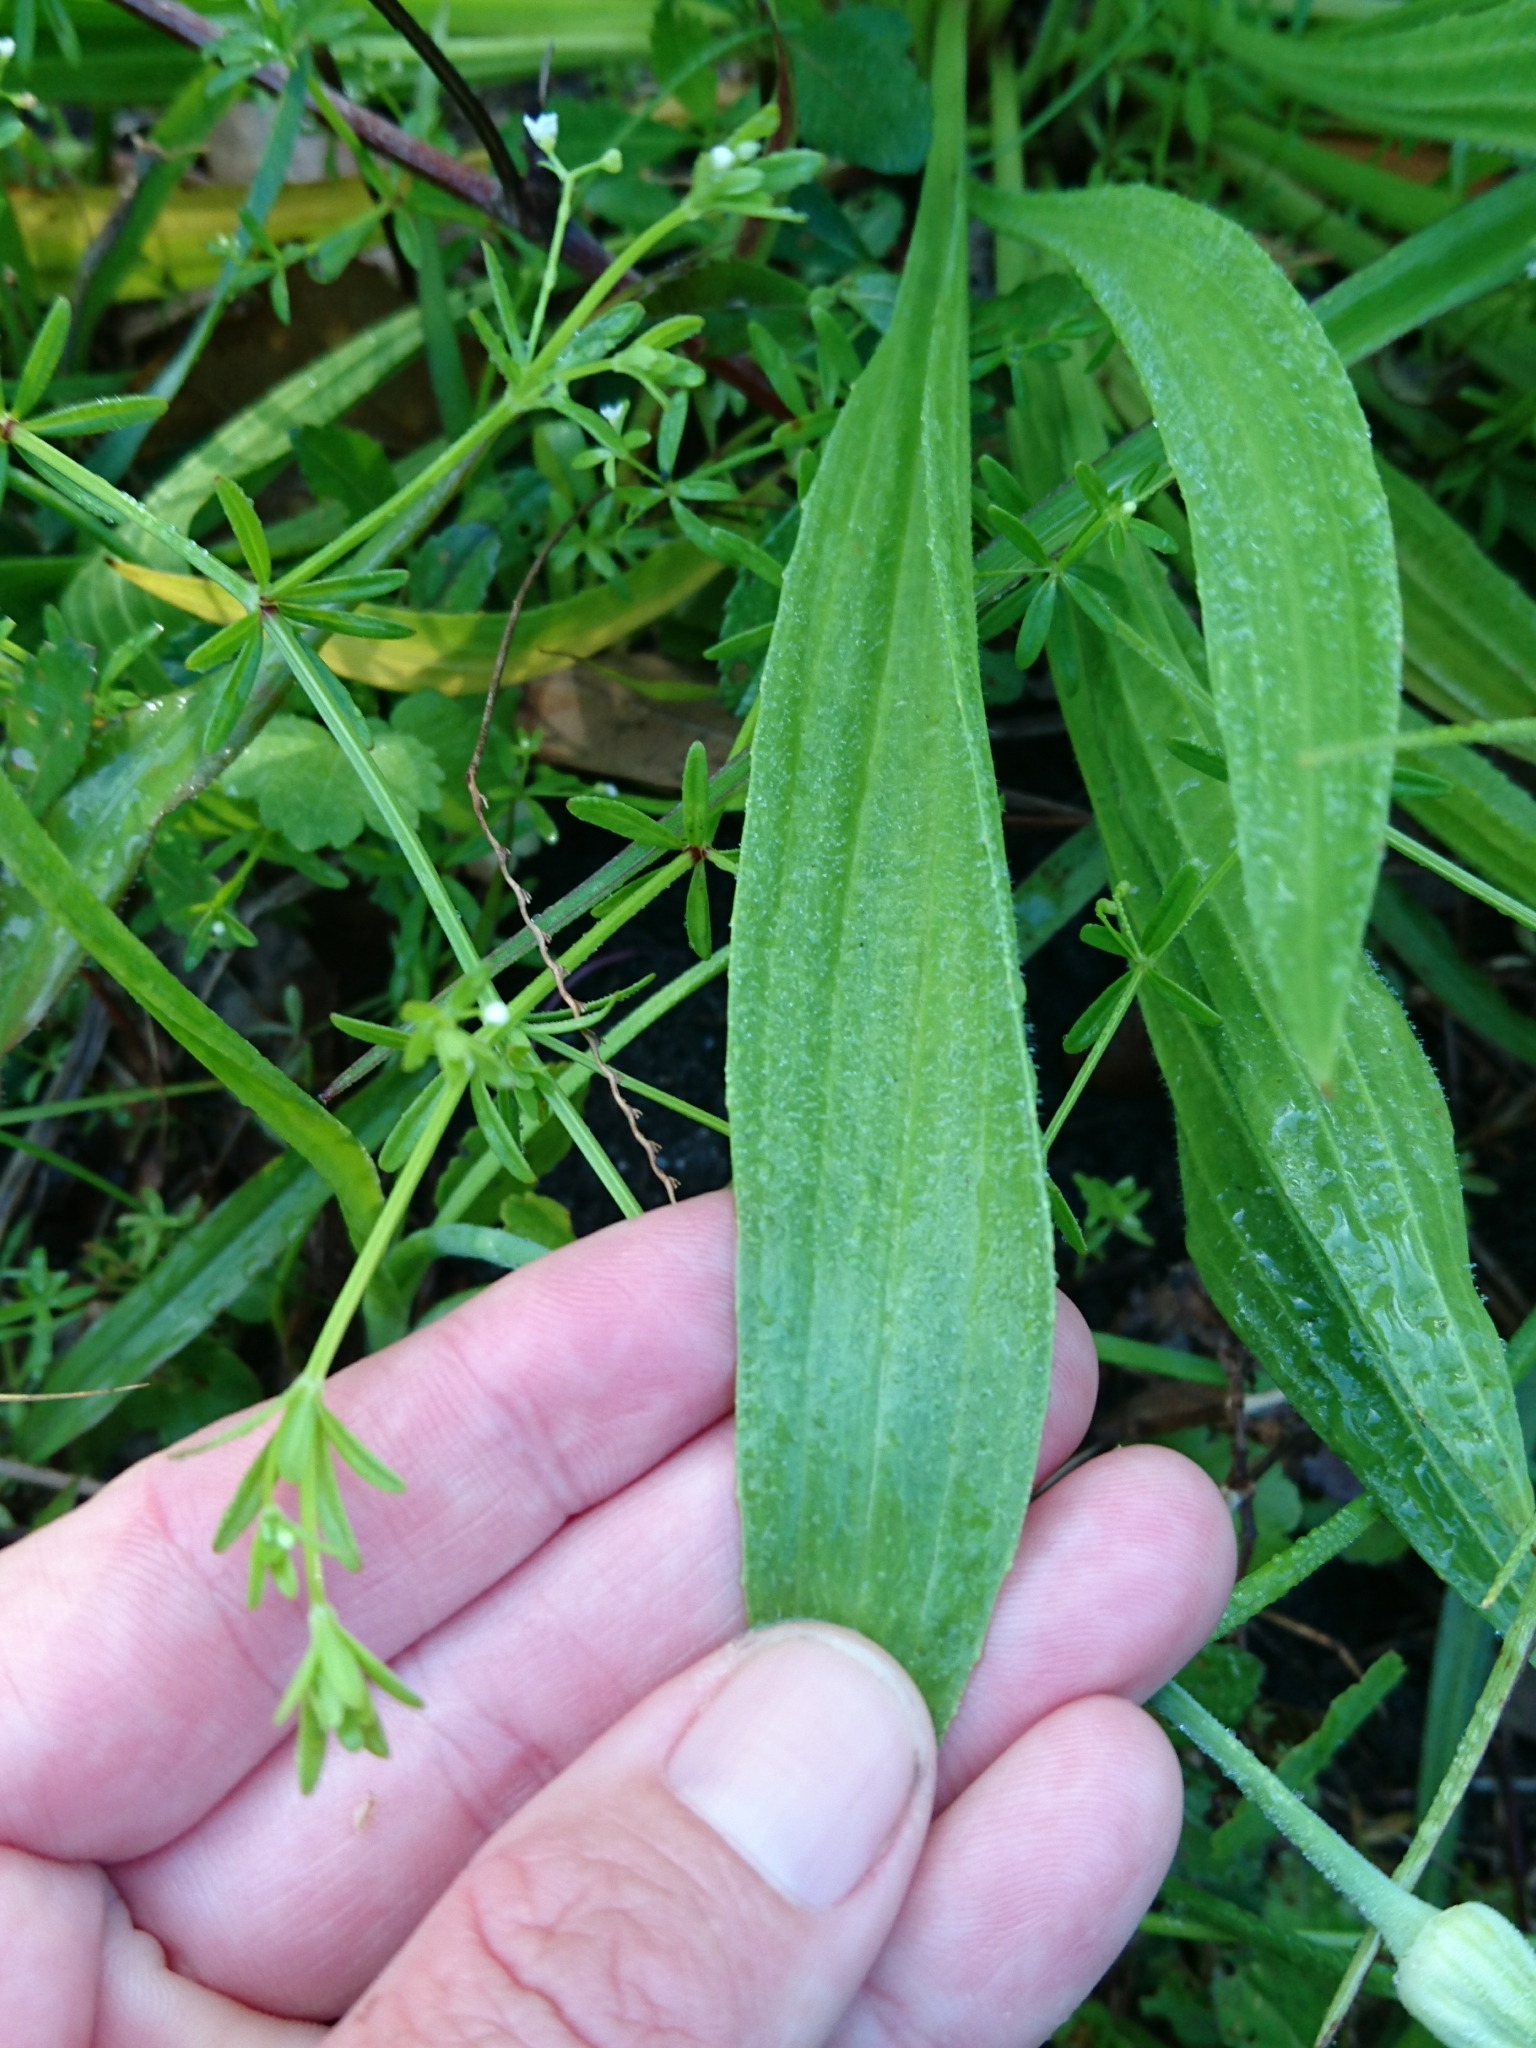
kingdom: Plantae
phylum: Tracheophyta
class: Magnoliopsida
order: Lamiales
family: Plantaginaceae
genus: Plantago
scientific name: Plantago lanceolata
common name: Ribwort plantain
